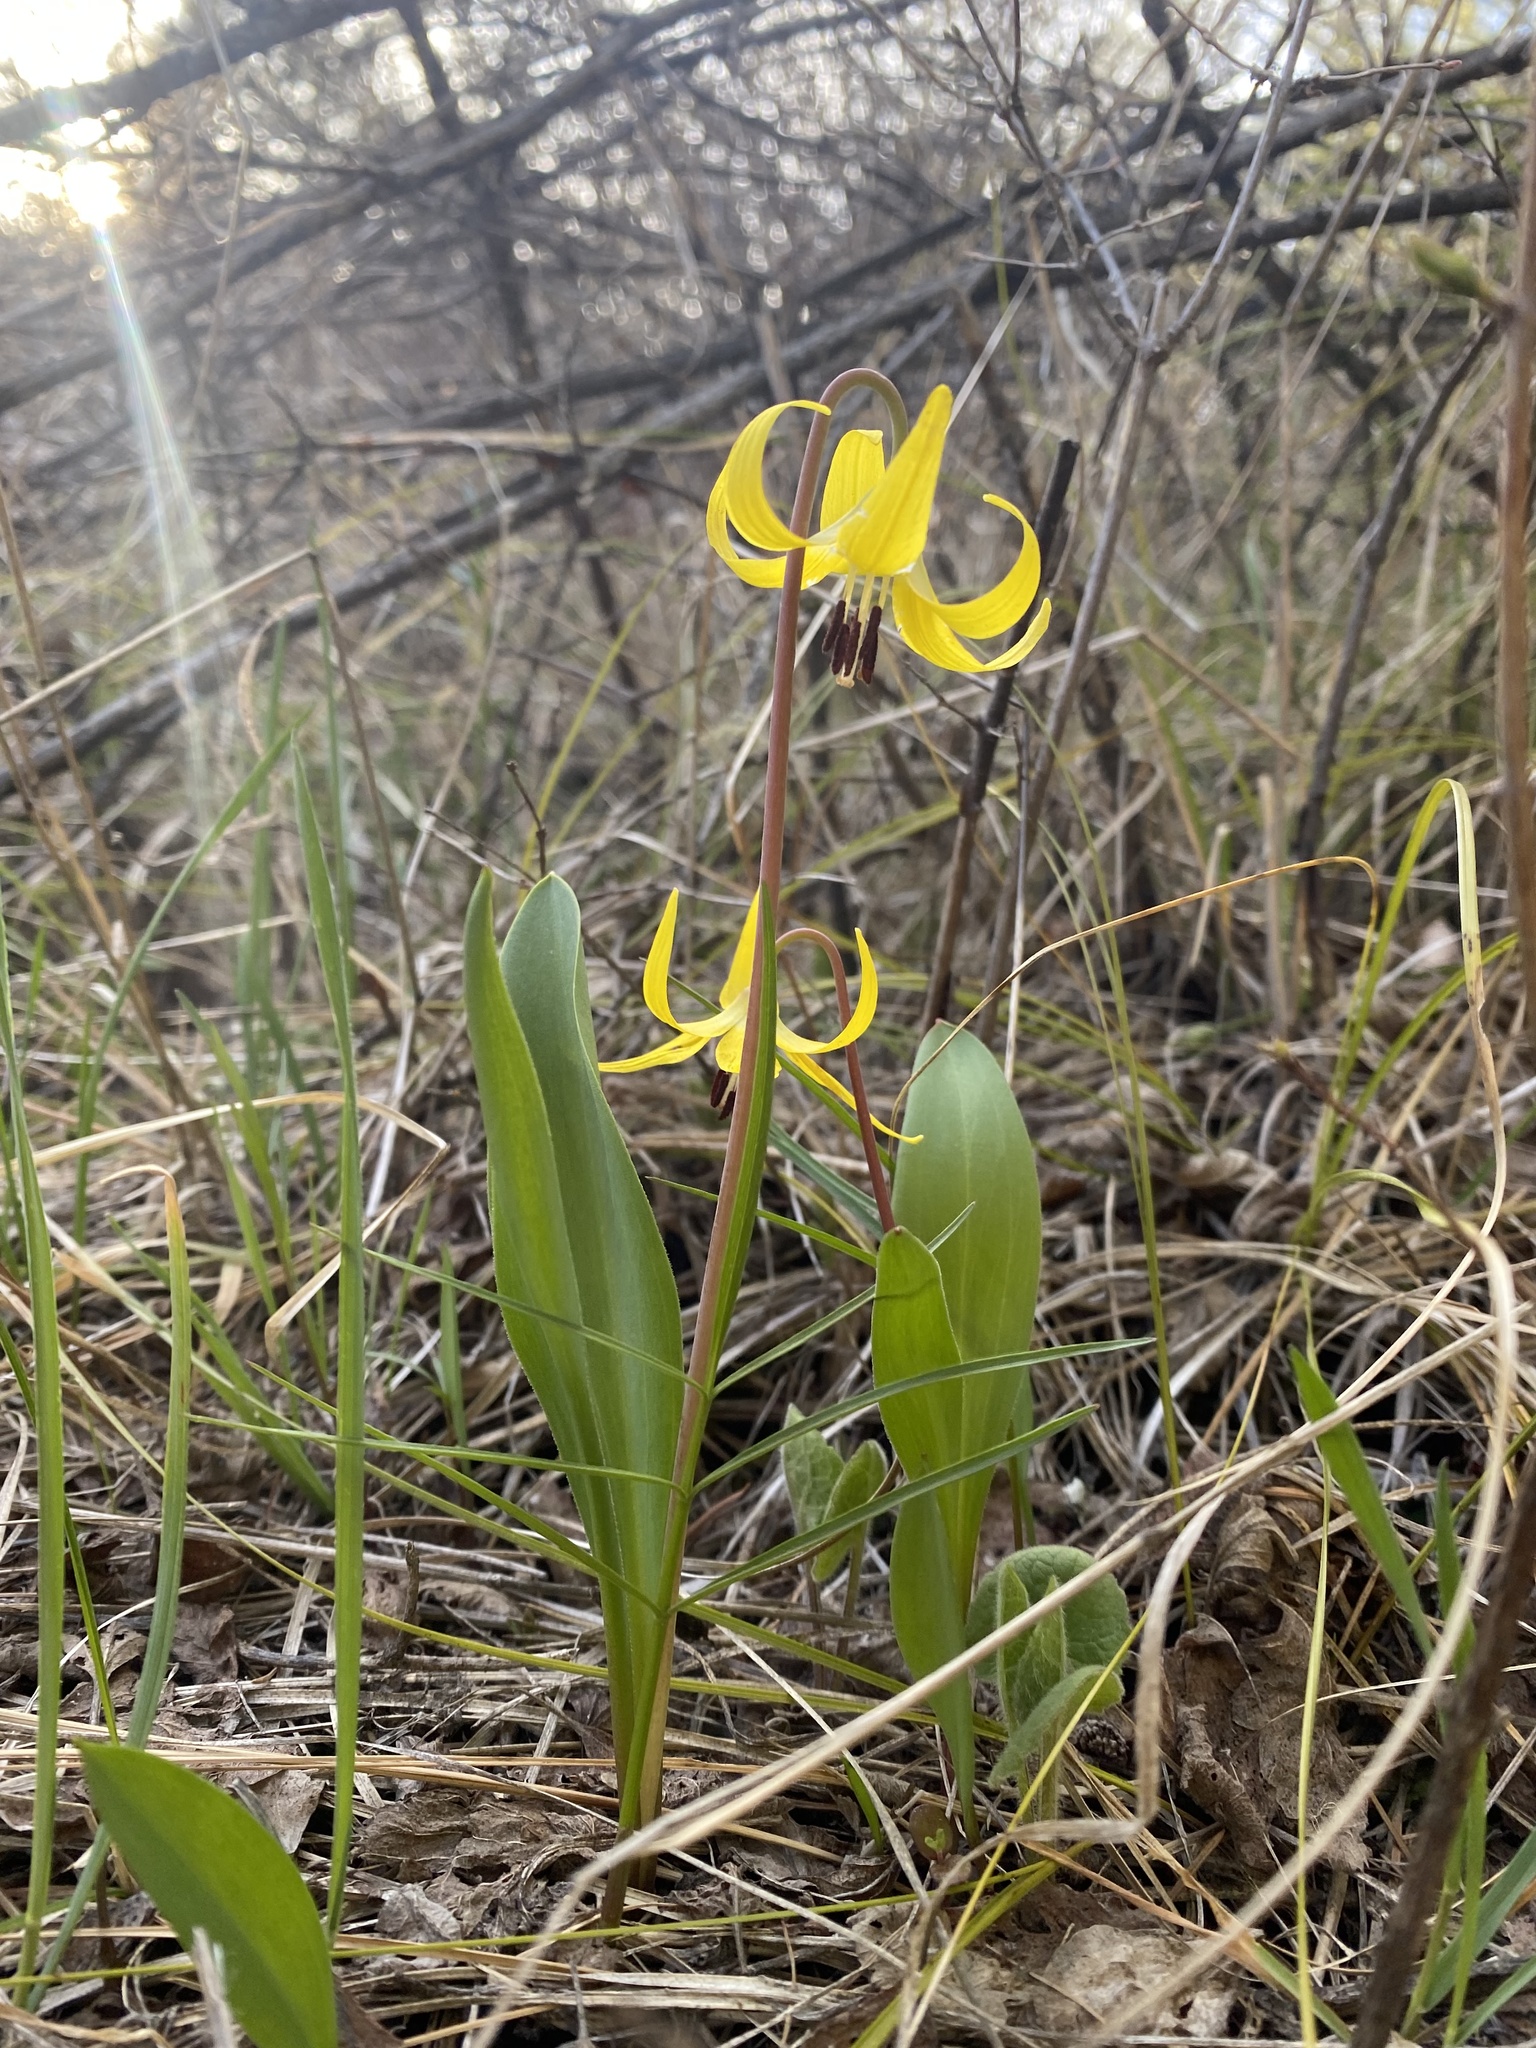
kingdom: Plantae
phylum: Tracheophyta
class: Liliopsida
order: Liliales
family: Liliaceae
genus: Erythronium
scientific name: Erythronium grandiflorum
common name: Avalanche-lily
